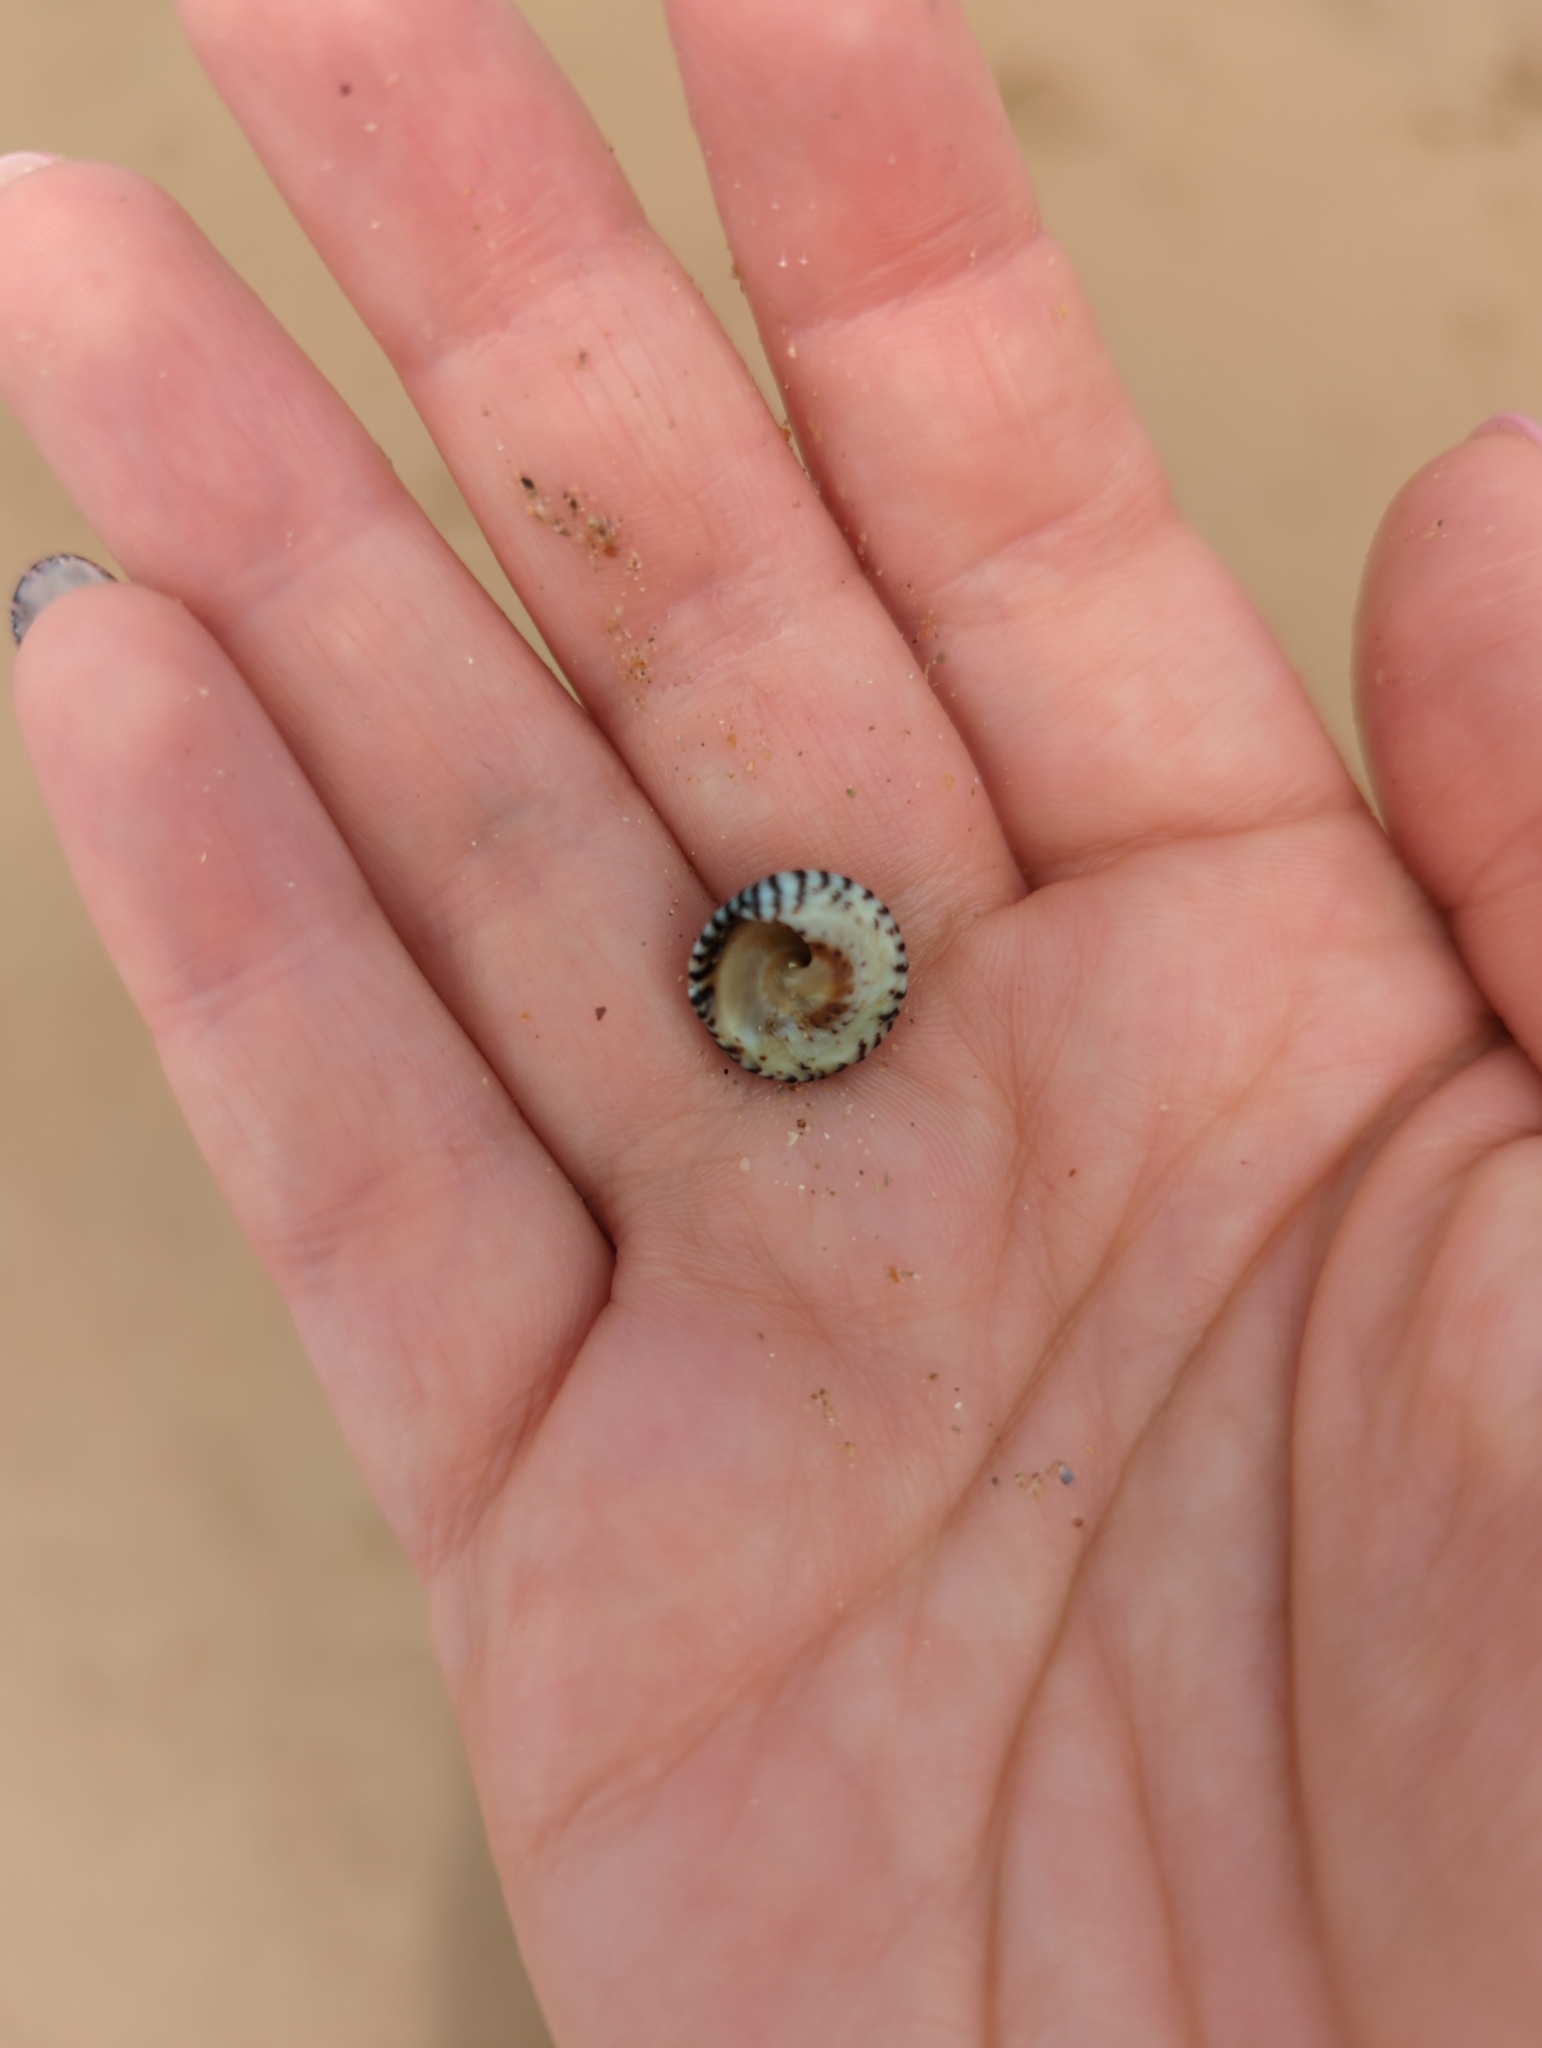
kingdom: Animalia
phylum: Mollusca
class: Gastropoda
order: Littorinimorpha
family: Littorinidae
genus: Bembicium
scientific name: Bembicium nanum
